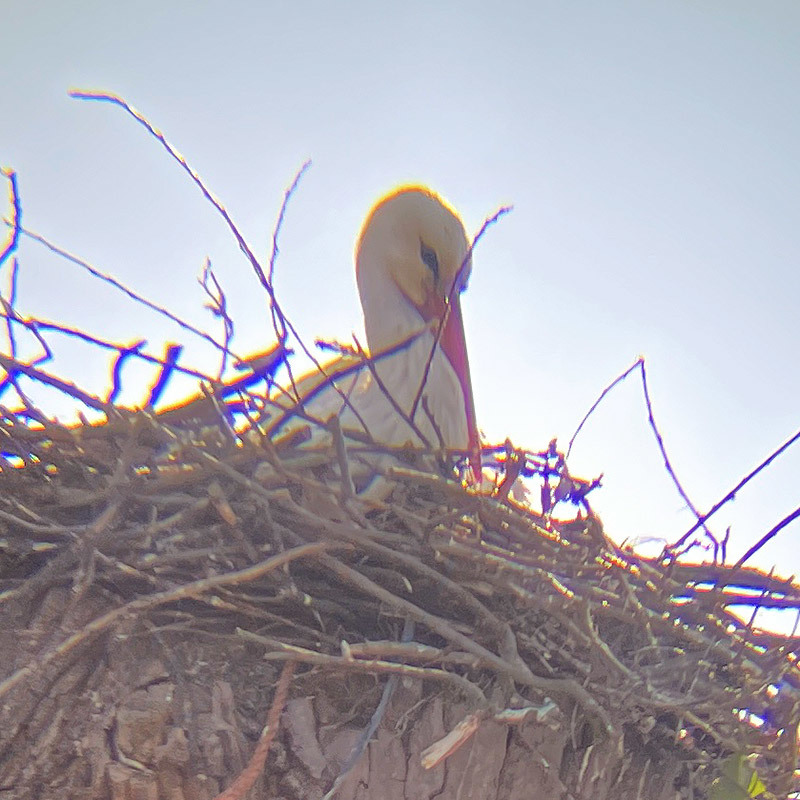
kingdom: Animalia
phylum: Chordata
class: Aves
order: Ciconiiformes
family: Ciconiidae
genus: Ciconia
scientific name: Ciconia ciconia
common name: White stork
